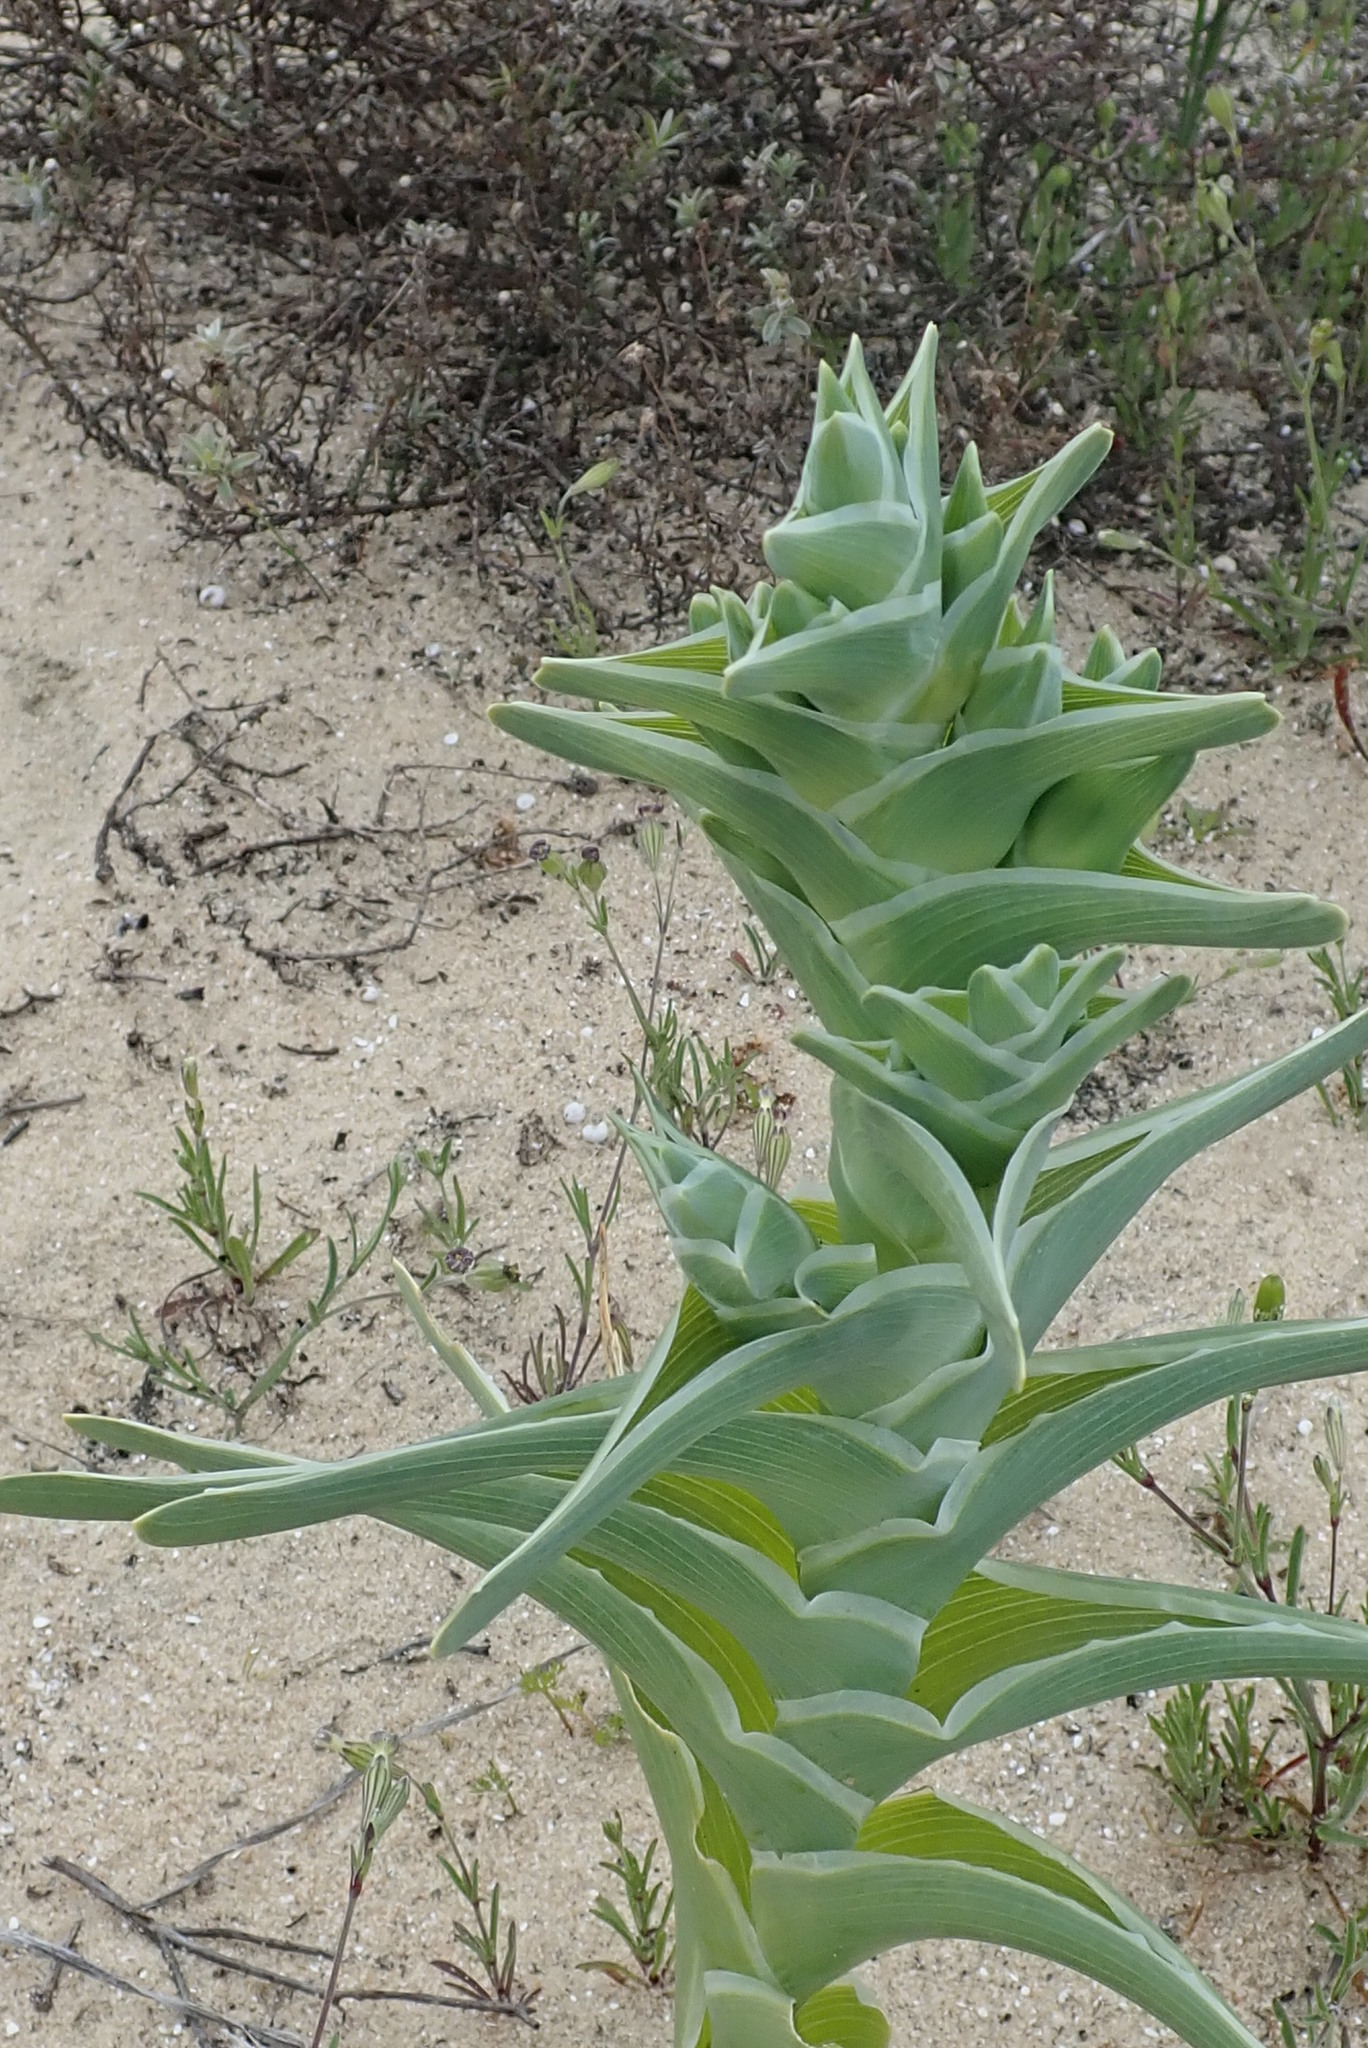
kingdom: Plantae
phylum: Tracheophyta
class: Liliopsida
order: Asparagales
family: Iridaceae
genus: Ferraria
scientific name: Ferraria foliosa
